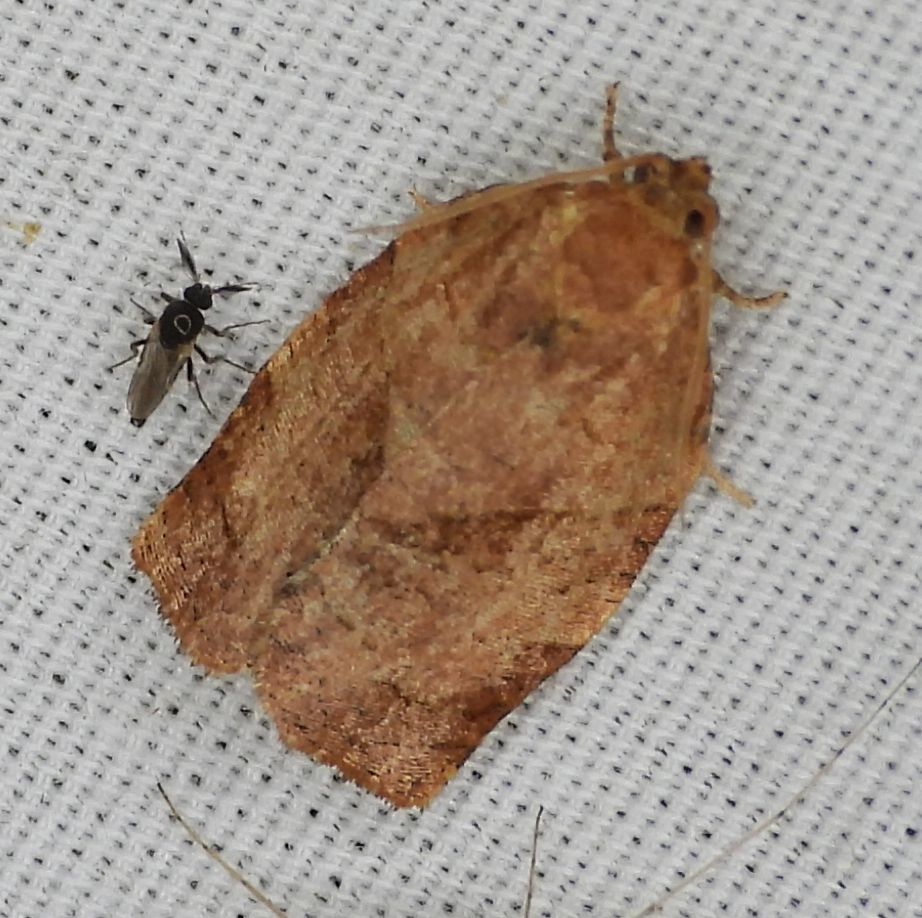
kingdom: Animalia
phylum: Arthropoda
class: Insecta
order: Lepidoptera
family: Tortricidae
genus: Choristoneura
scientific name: Choristoneura rosaceana
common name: Oblique-banded leafroller moth
